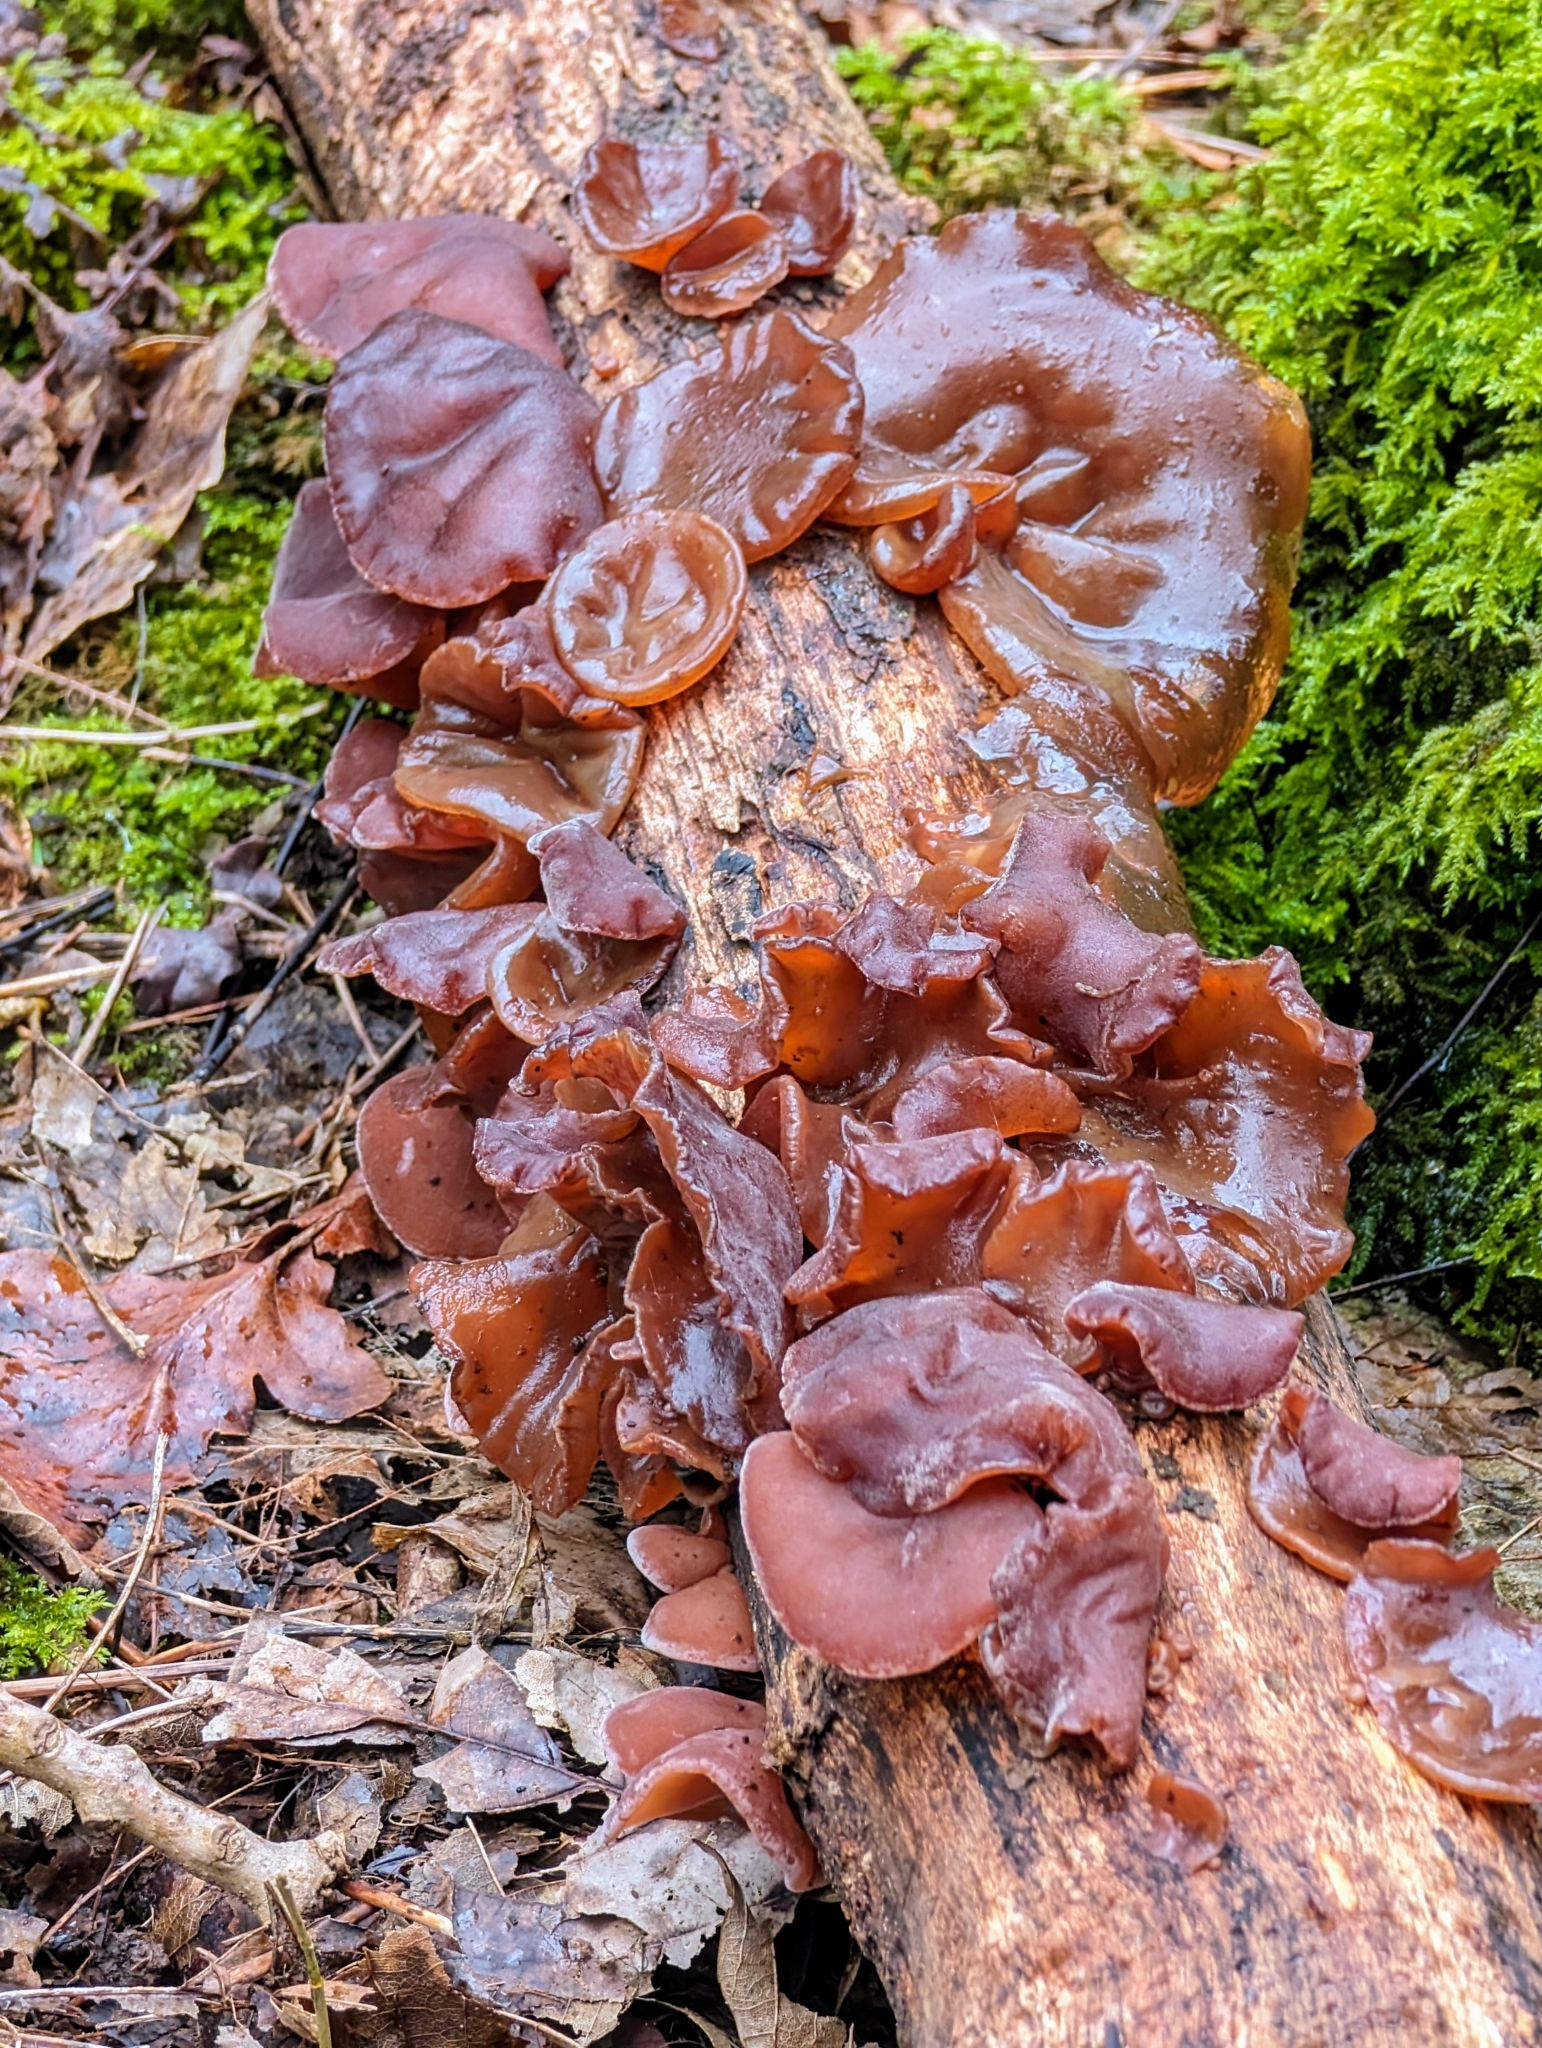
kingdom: Fungi
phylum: Basidiomycota
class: Agaricomycetes
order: Auriculariales
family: Auriculariaceae
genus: Auricularia
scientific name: Auricularia auricula-judae
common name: Jelly ear
